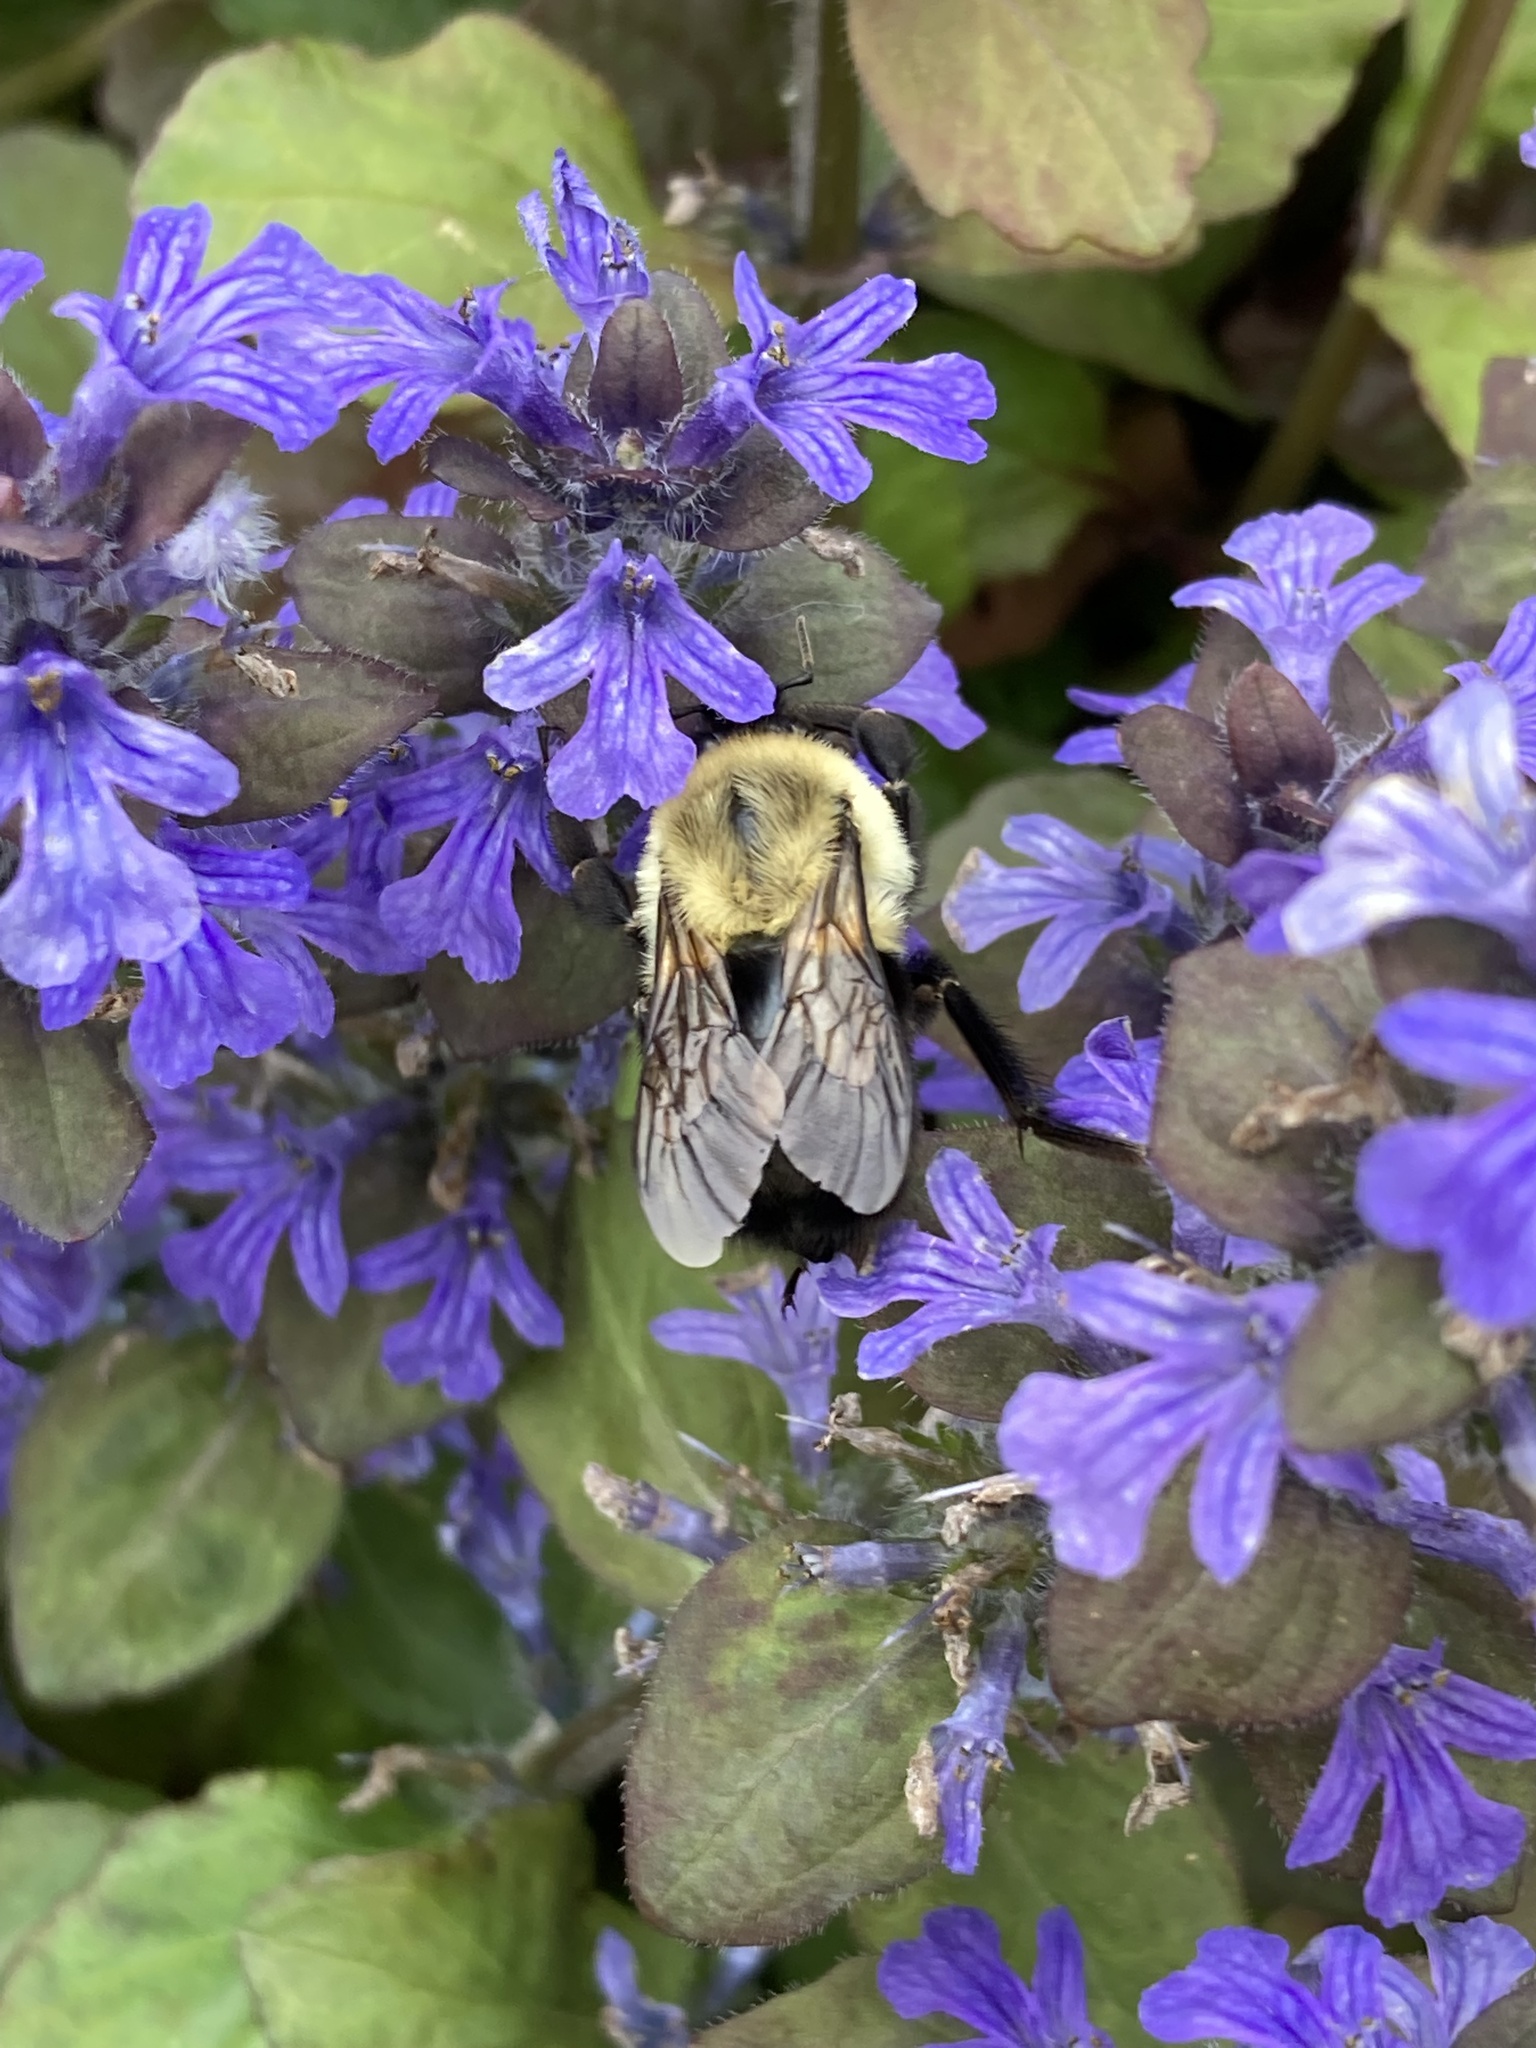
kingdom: Animalia
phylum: Arthropoda
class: Insecta
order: Hymenoptera
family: Apidae
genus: Bombus
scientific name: Bombus impatiens
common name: Common eastern bumble bee
